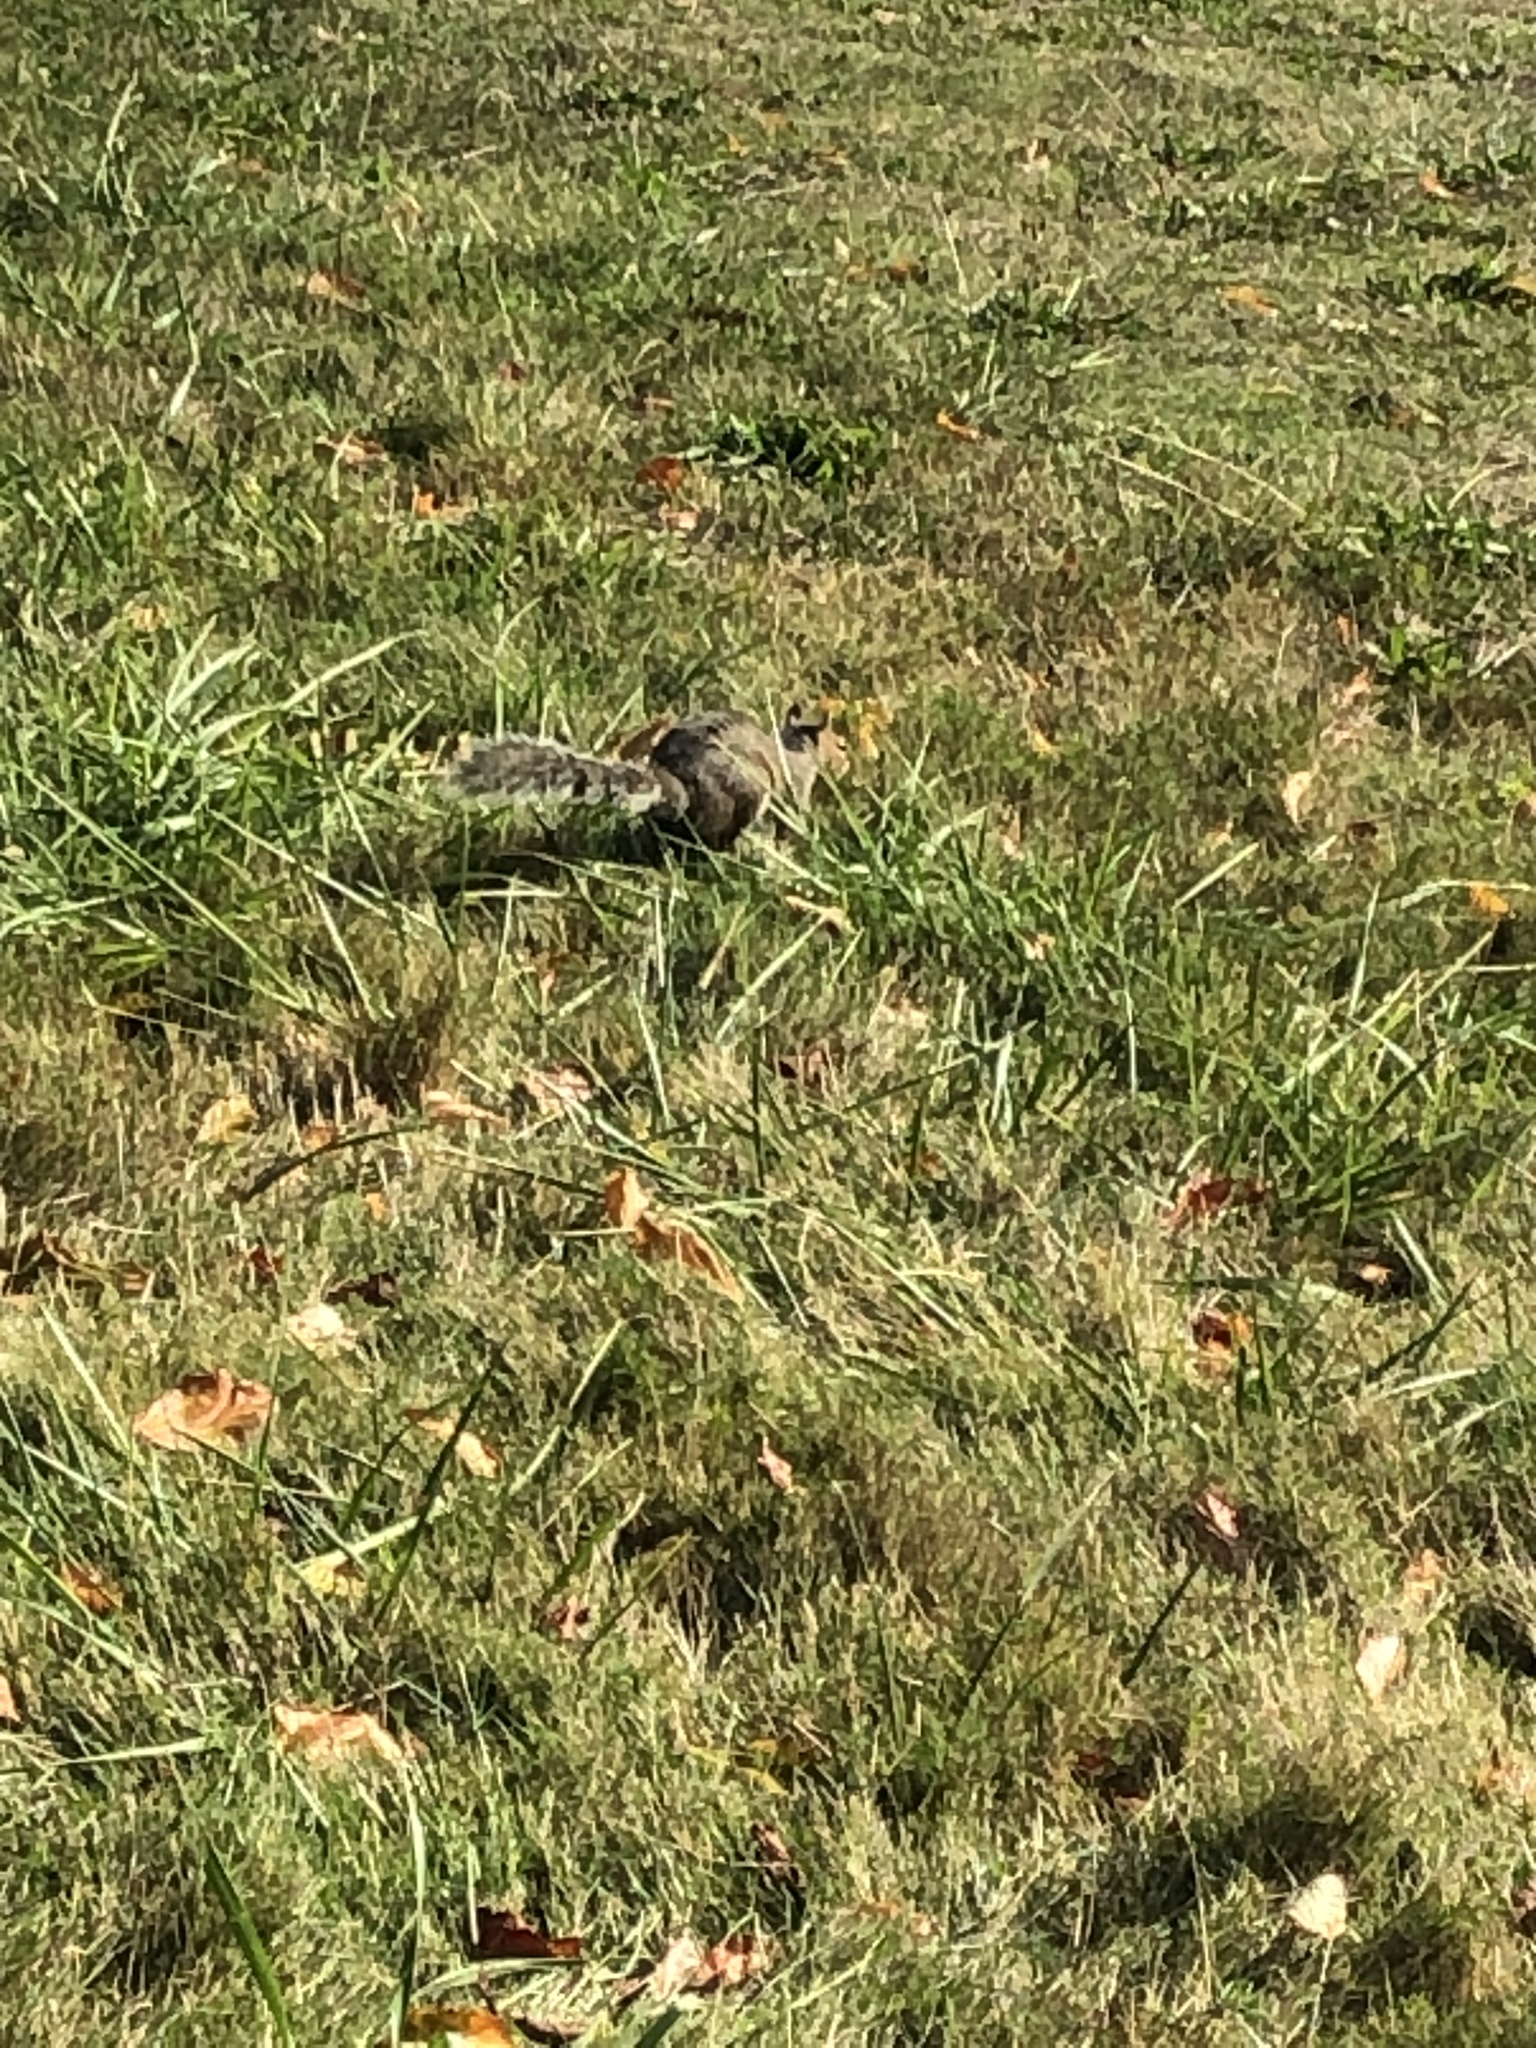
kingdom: Animalia
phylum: Chordata
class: Mammalia
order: Rodentia
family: Sciuridae
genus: Sciurus
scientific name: Sciurus carolinensis
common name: Eastern gray squirrel
